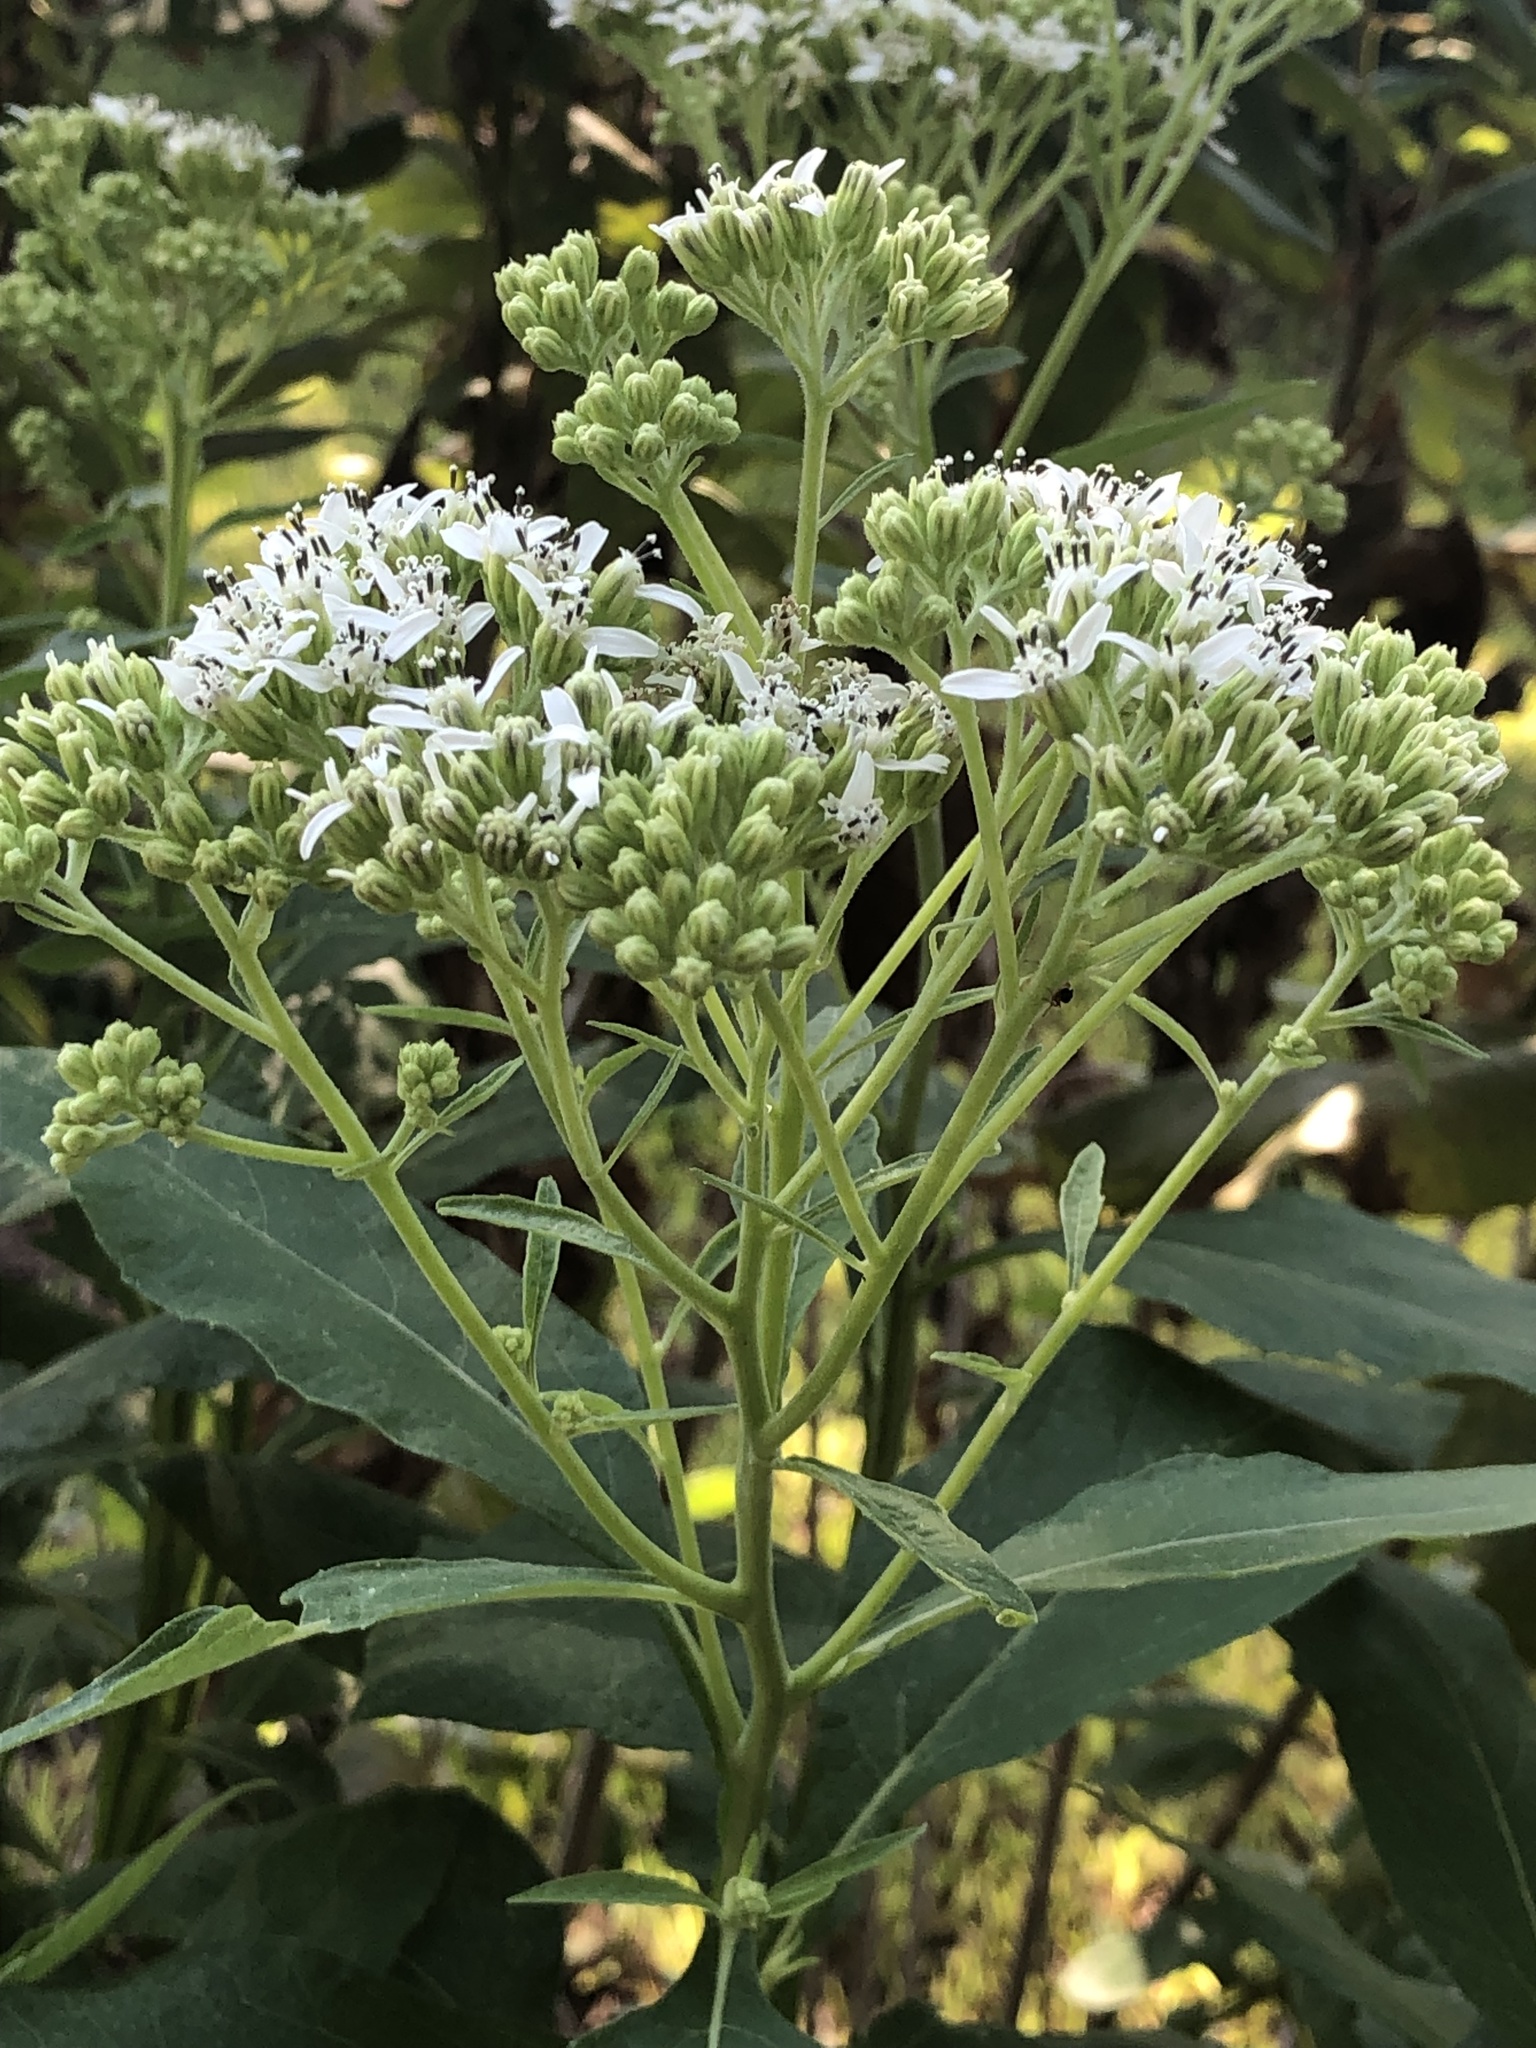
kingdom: Plantae
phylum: Tracheophyta
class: Magnoliopsida
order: Asterales
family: Asteraceae
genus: Verbesina
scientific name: Verbesina virginica
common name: Frostweed
